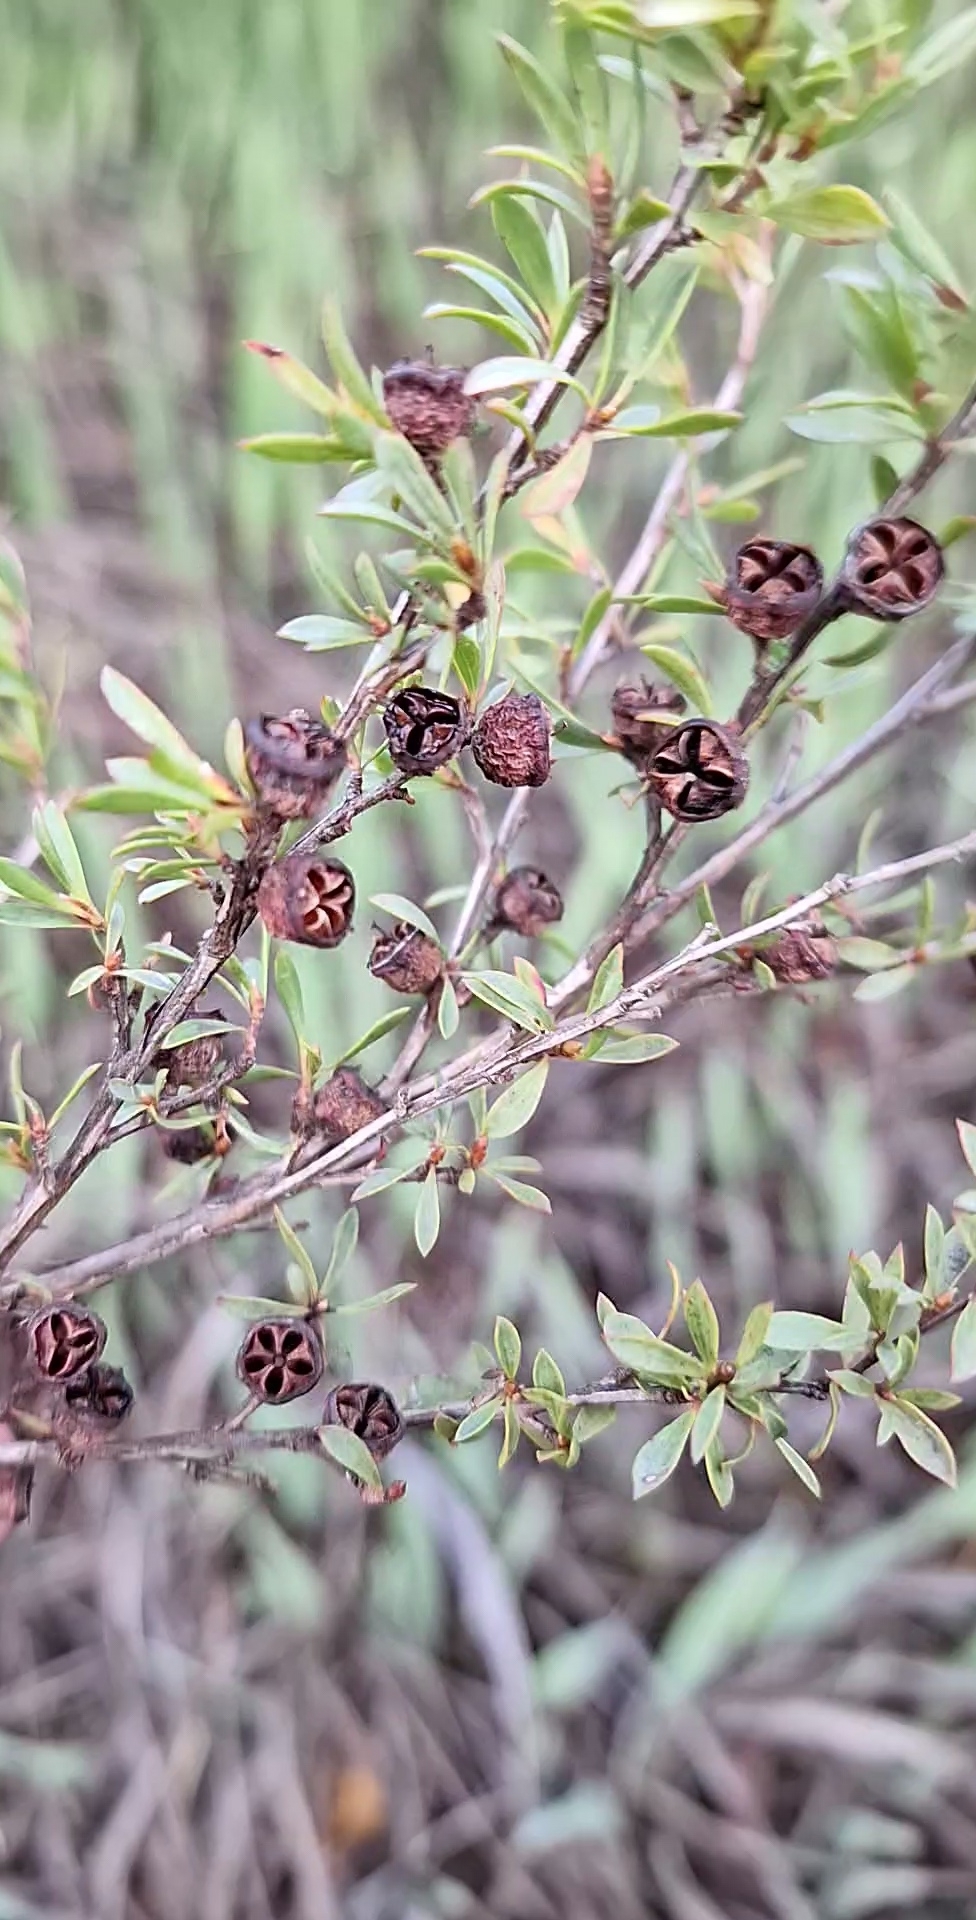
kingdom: Plantae
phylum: Tracheophyta
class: Magnoliopsida
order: Myrtales
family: Myrtaceae
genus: Leptospermum
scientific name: Leptospermum myrsinoides
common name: Heath teatree
